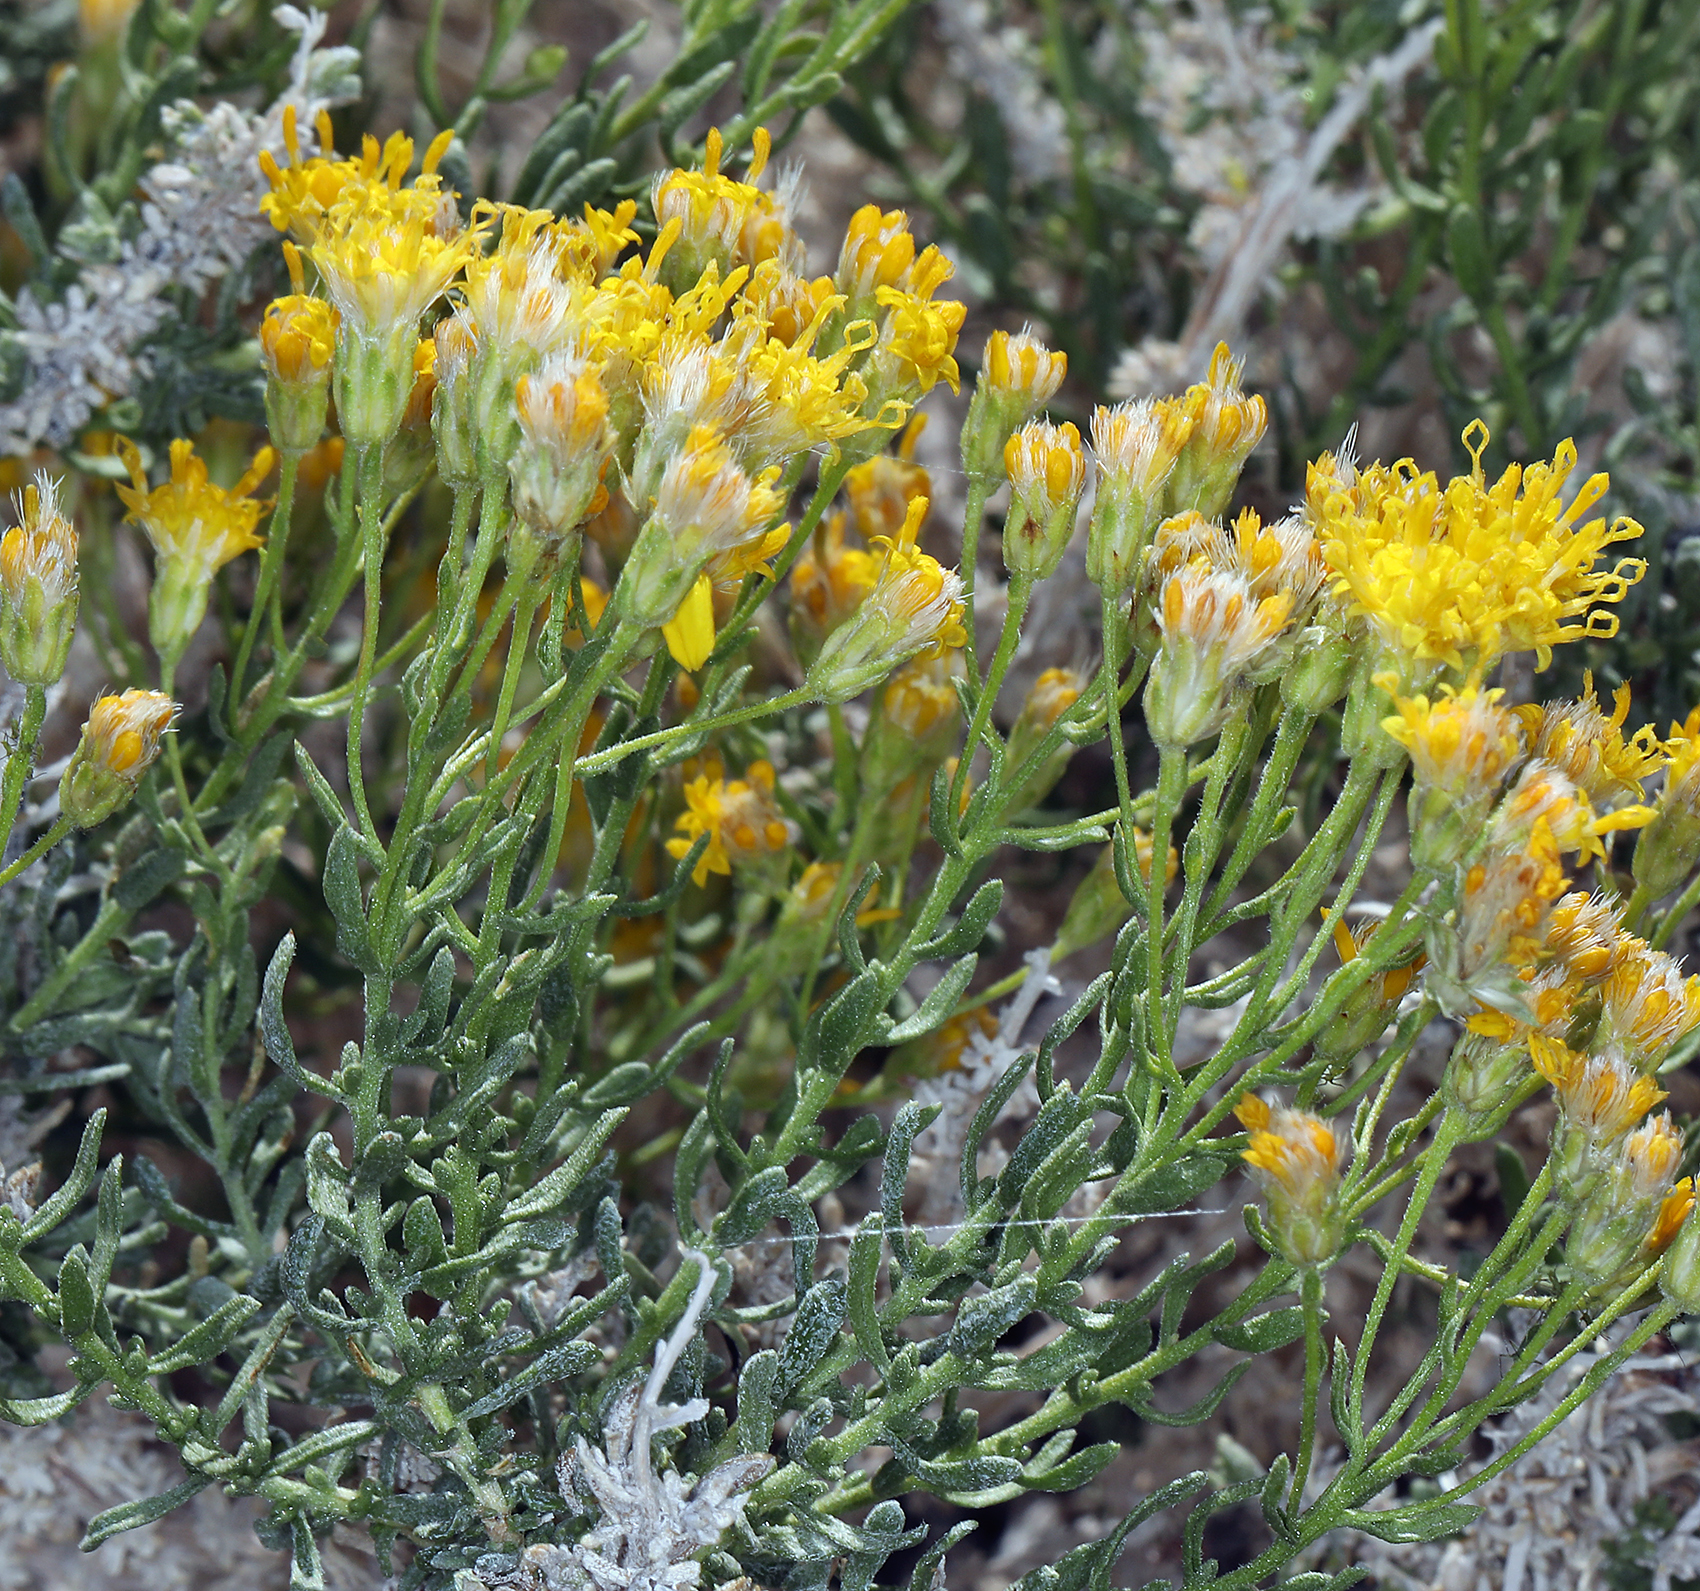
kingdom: Plantae
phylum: Tracheophyta
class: Magnoliopsida
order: Asterales
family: Asteraceae
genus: Ericameria
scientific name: Ericameria cooperi
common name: Cooper's goldenbush
